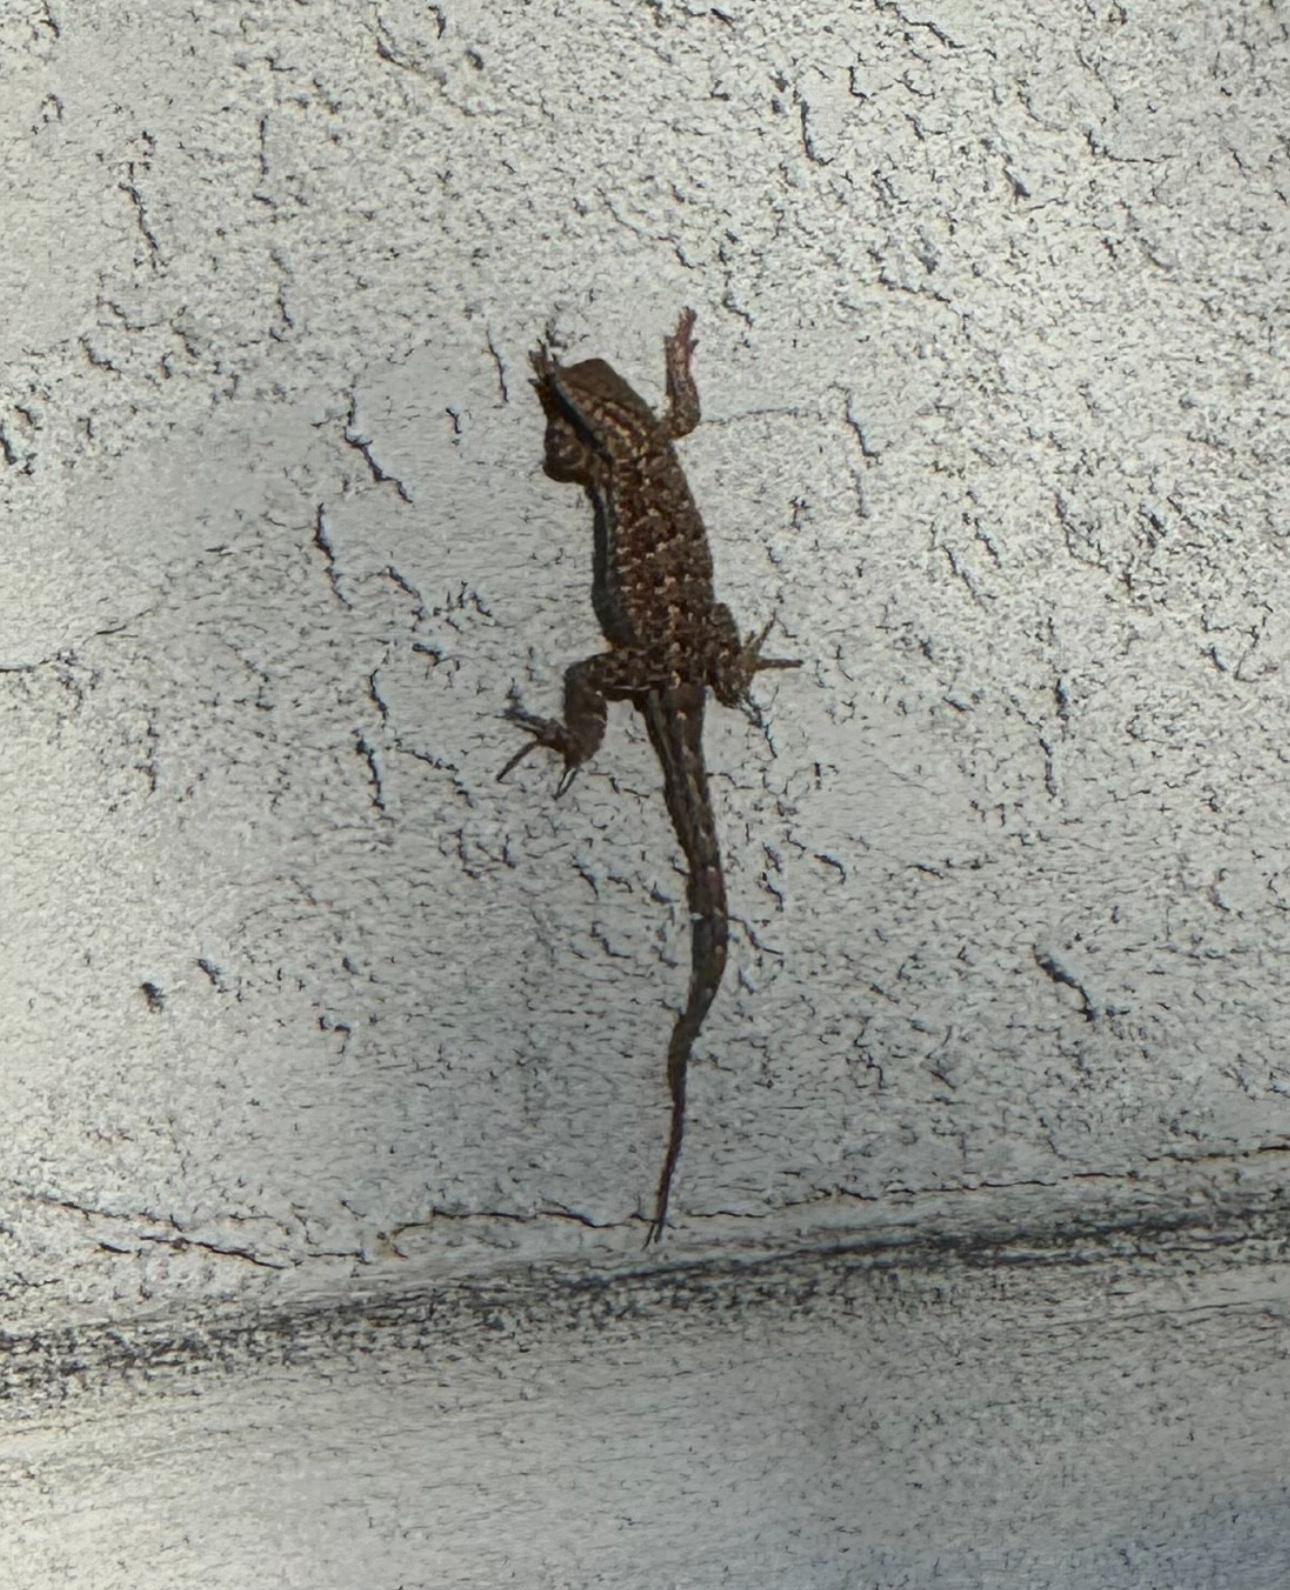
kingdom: Animalia
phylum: Chordata
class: Squamata
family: Phrynosomatidae
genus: Uta
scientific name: Uta stansburiana
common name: Side-blotched lizard
